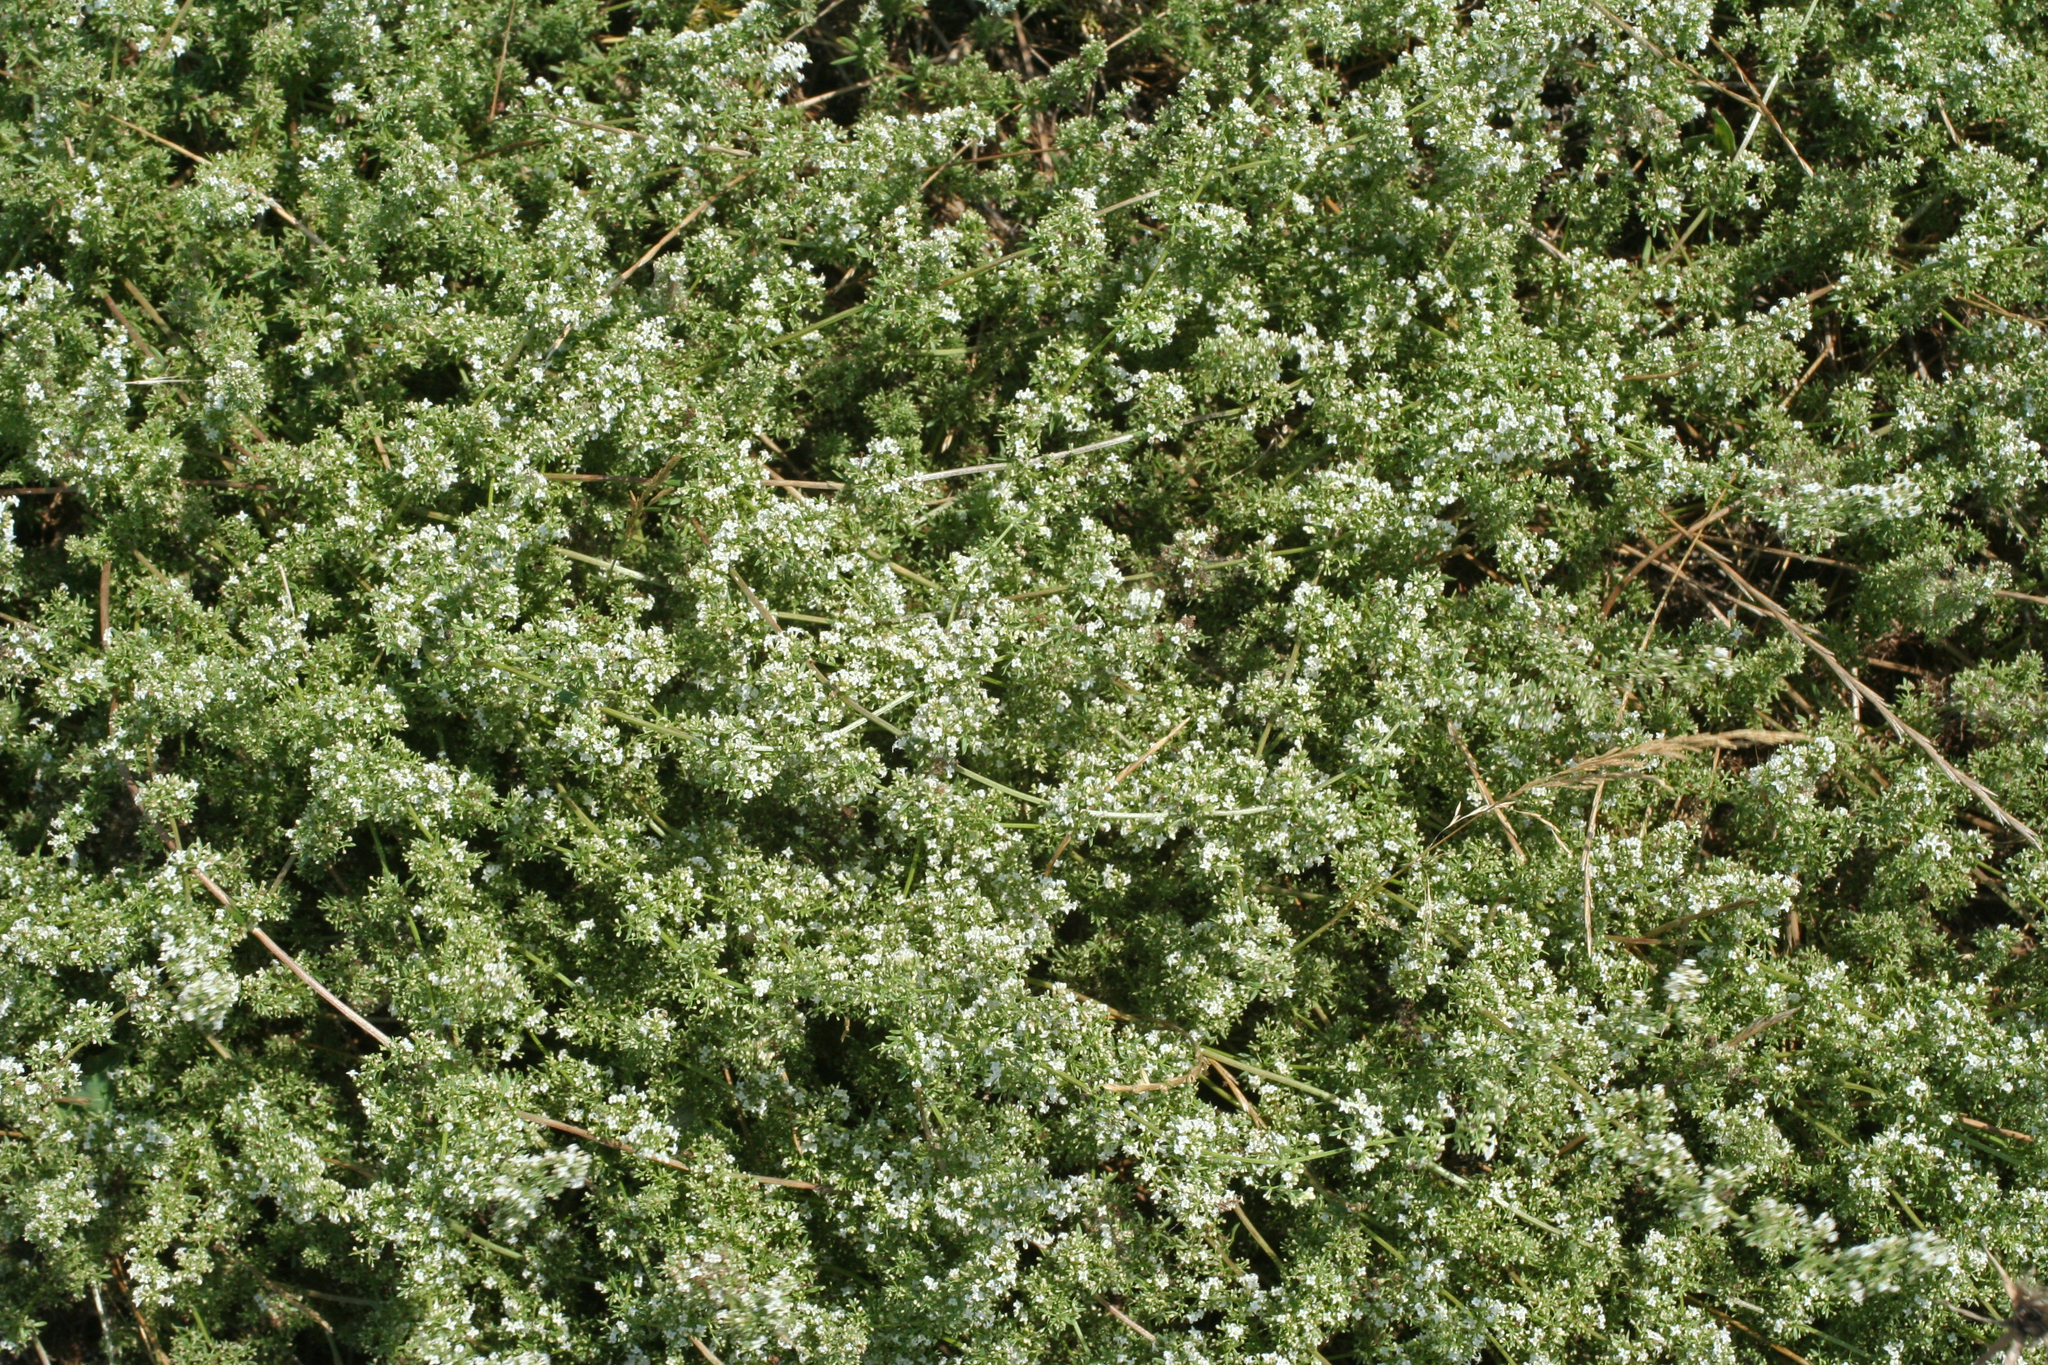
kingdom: Plantae
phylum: Tracheophyta
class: Magnoliopsida
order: Gentianales
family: Rubiaceae
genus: Galium
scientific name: Galium humifusum
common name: Spreading bedstraw
